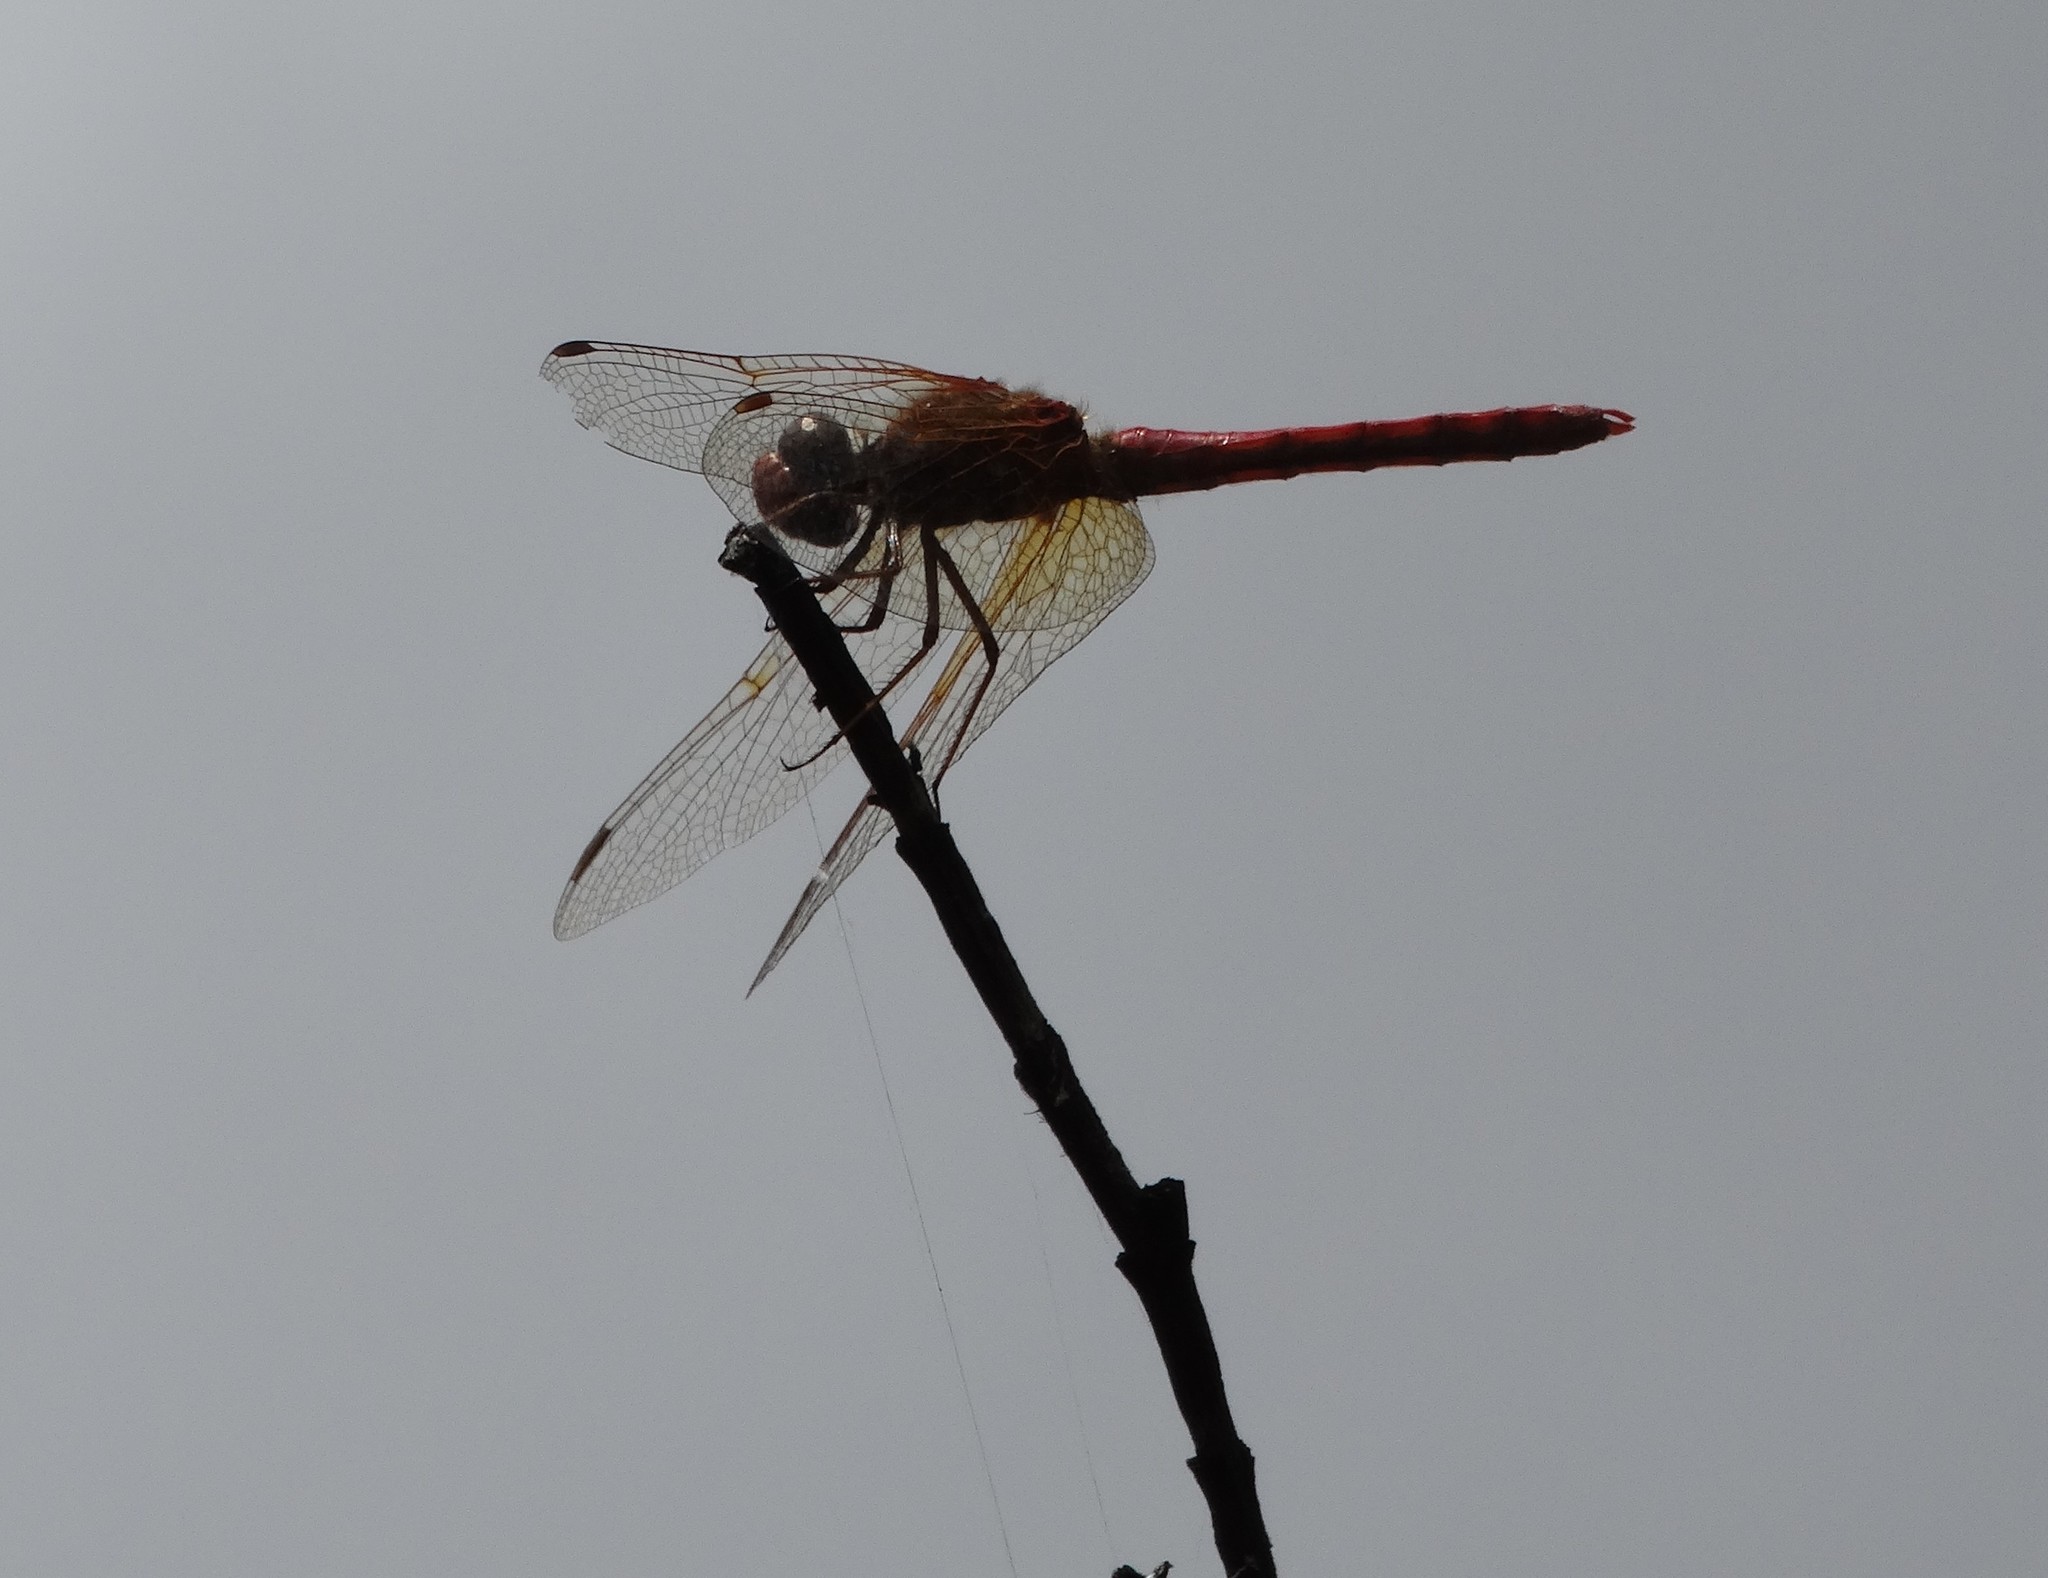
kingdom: Animalia
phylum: Arthropoda
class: Insecta
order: Odonata
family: Libellulidae
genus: Sympetrum
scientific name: Sympetrum illotum
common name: Cardinal meadowhawk
